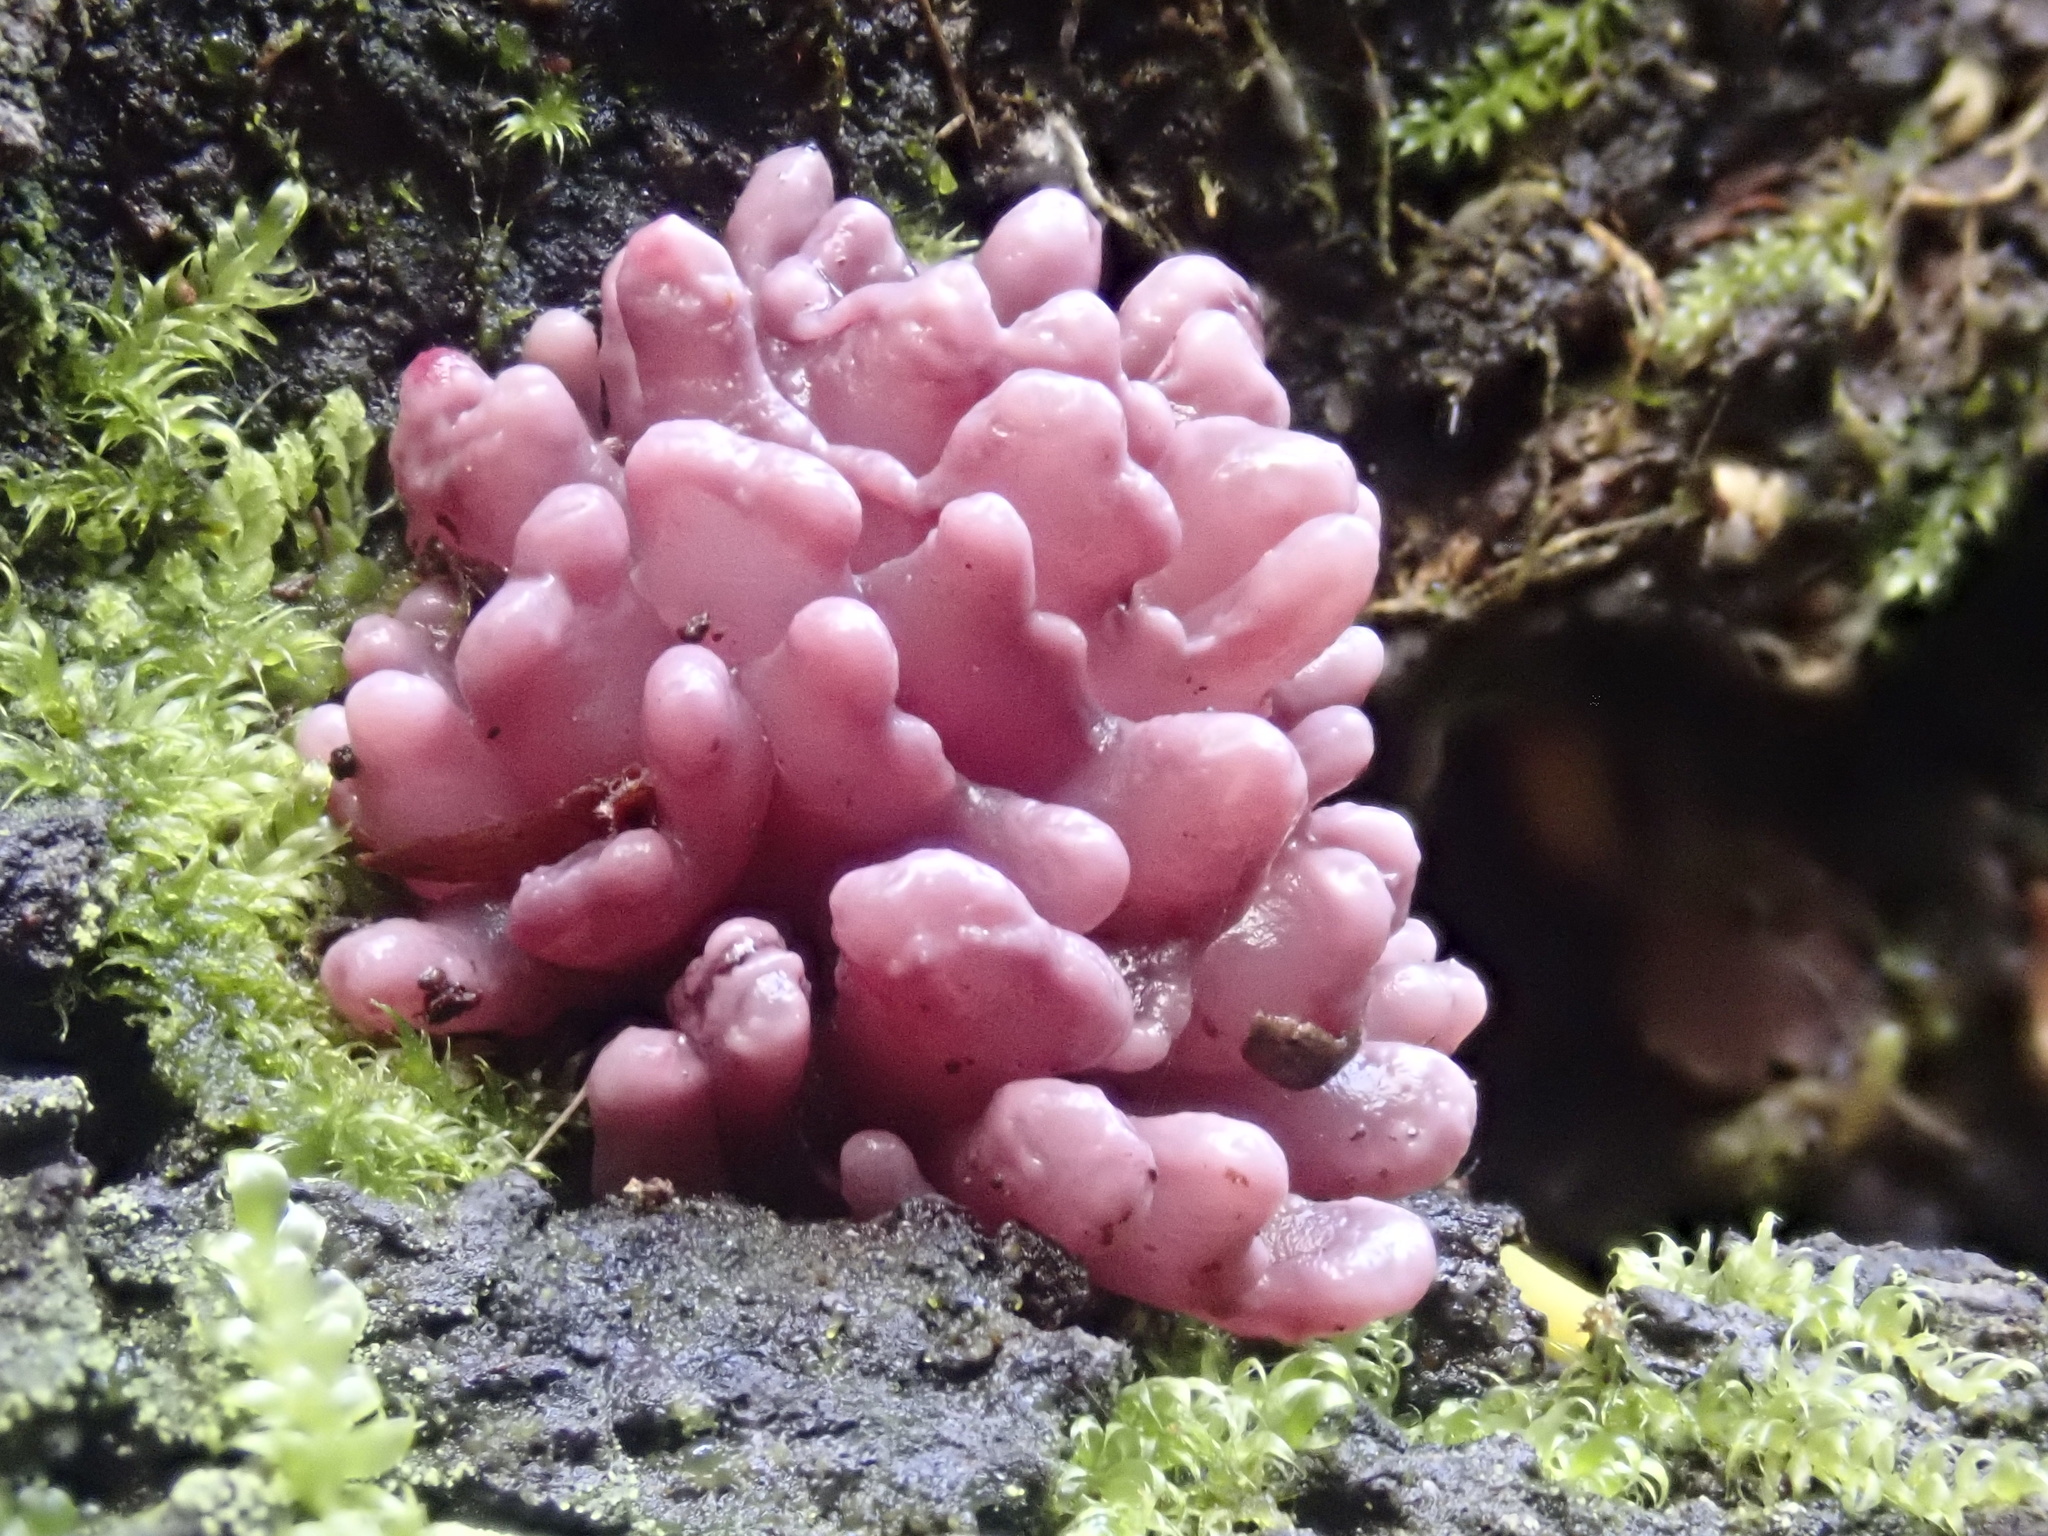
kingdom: Fungi
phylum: Ascomycota
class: Leotiomycetes
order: Helotiales
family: Gelatinodiscaceae
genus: Ascocoryne
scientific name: Ascocoryne sarcoides
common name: Purple jellydisc
